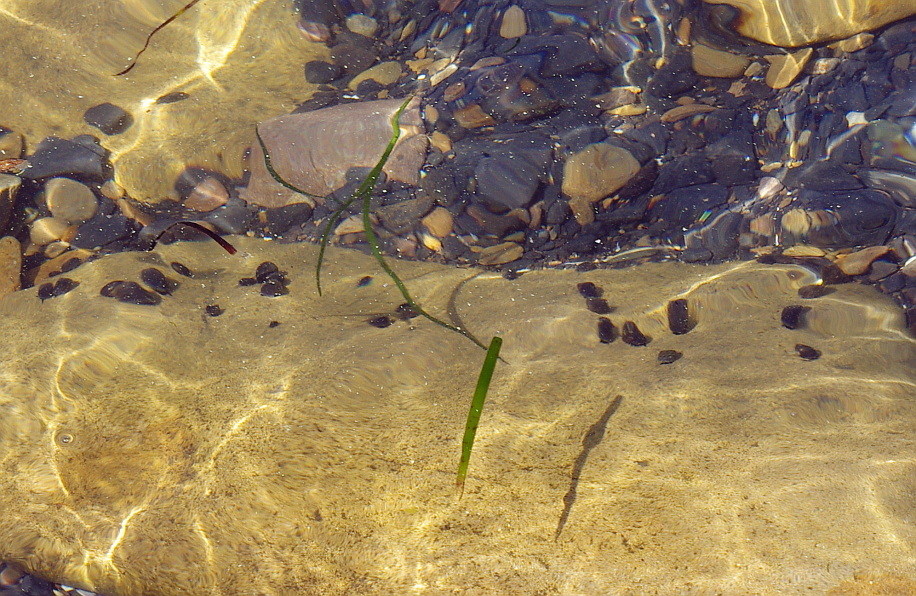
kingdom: Plantae
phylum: Tracheophyta
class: Liliopsida
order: Alismatales
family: Zosteraceae
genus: Zostera
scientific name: Zostera marina
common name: Eelgrass
